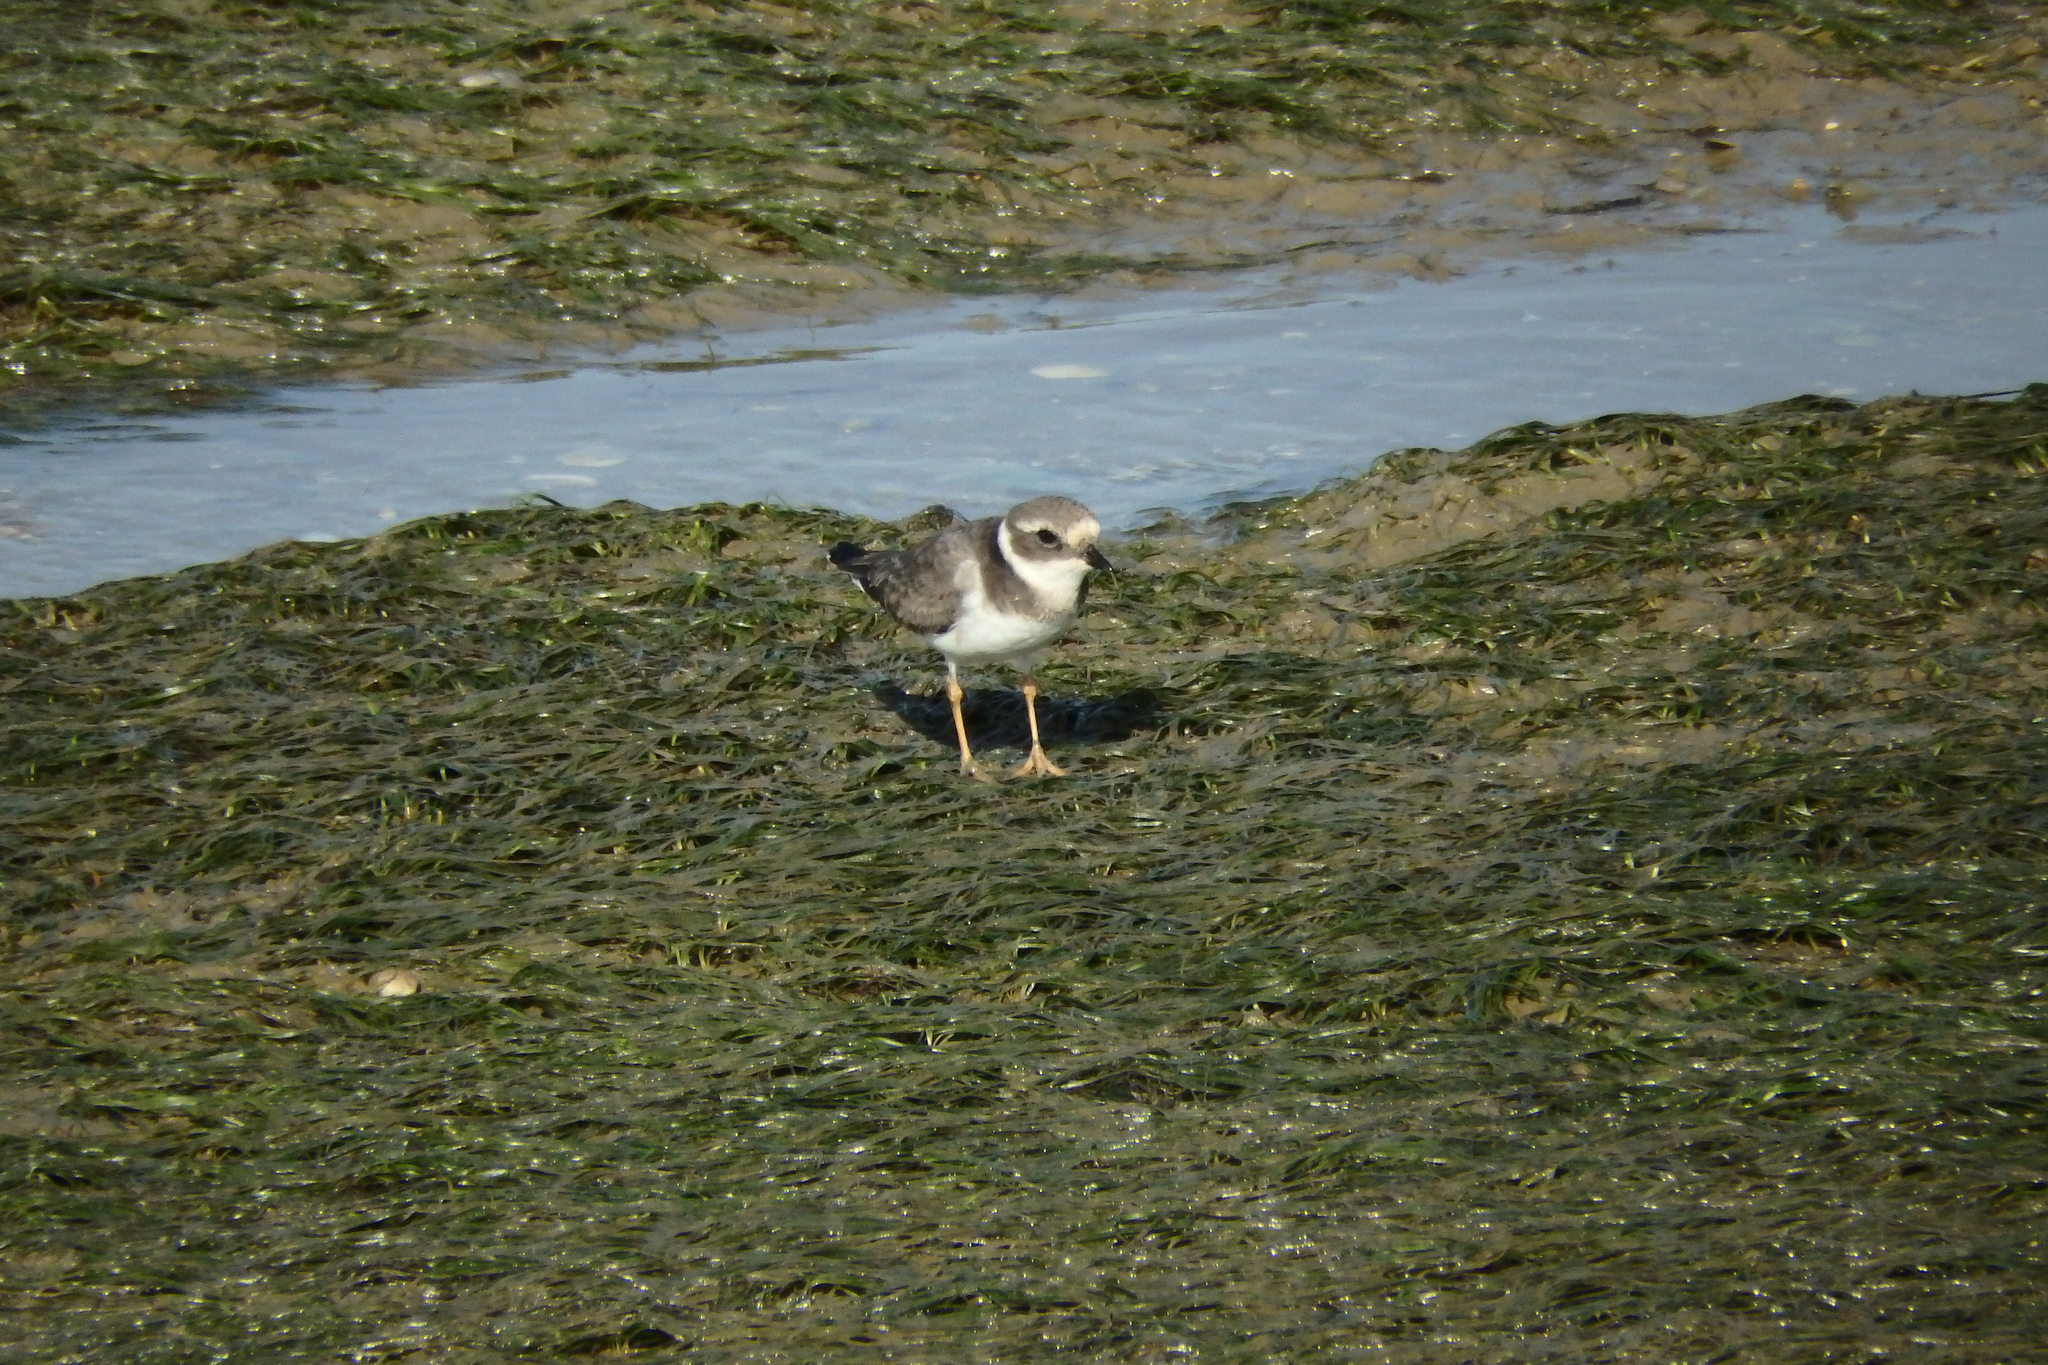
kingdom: Plantae
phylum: Tracheophyta
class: Liliopsida
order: Alismatales
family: Zosteraceae
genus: Zostera
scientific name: Zostera noltii
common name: Dwarf eelgrass
